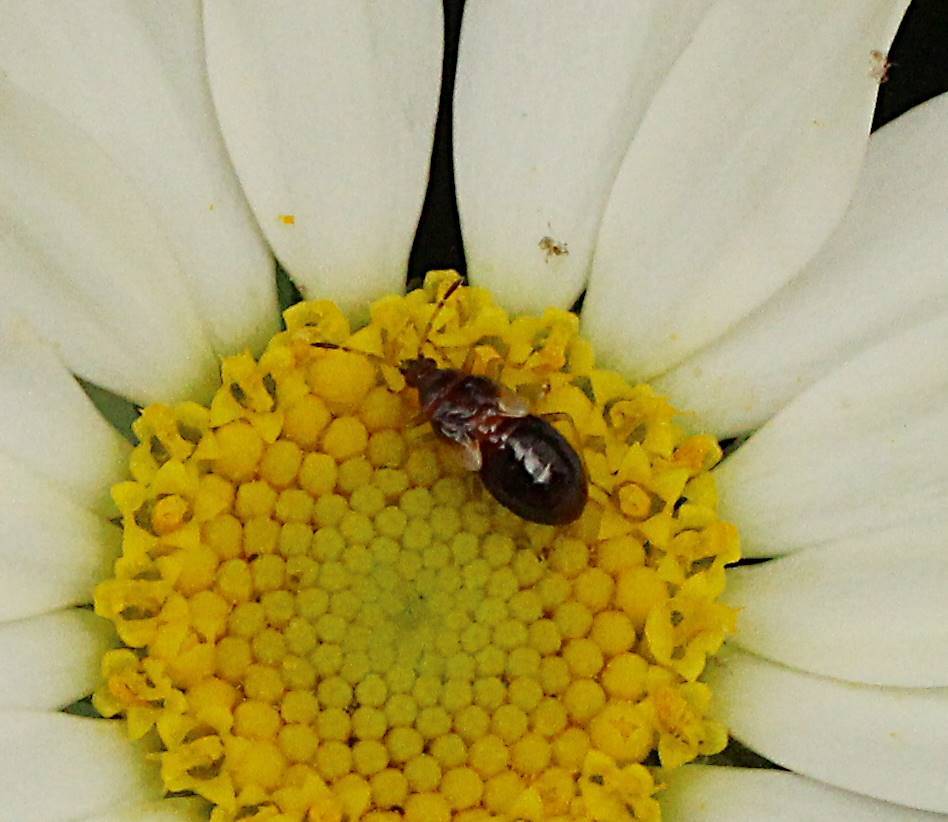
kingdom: Animalia
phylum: Arthropoda
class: Insecta
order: Hemiptera
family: Anthocoridae
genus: Anthocoris
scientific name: Anthocoris nemorum
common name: Minute pirate bug
